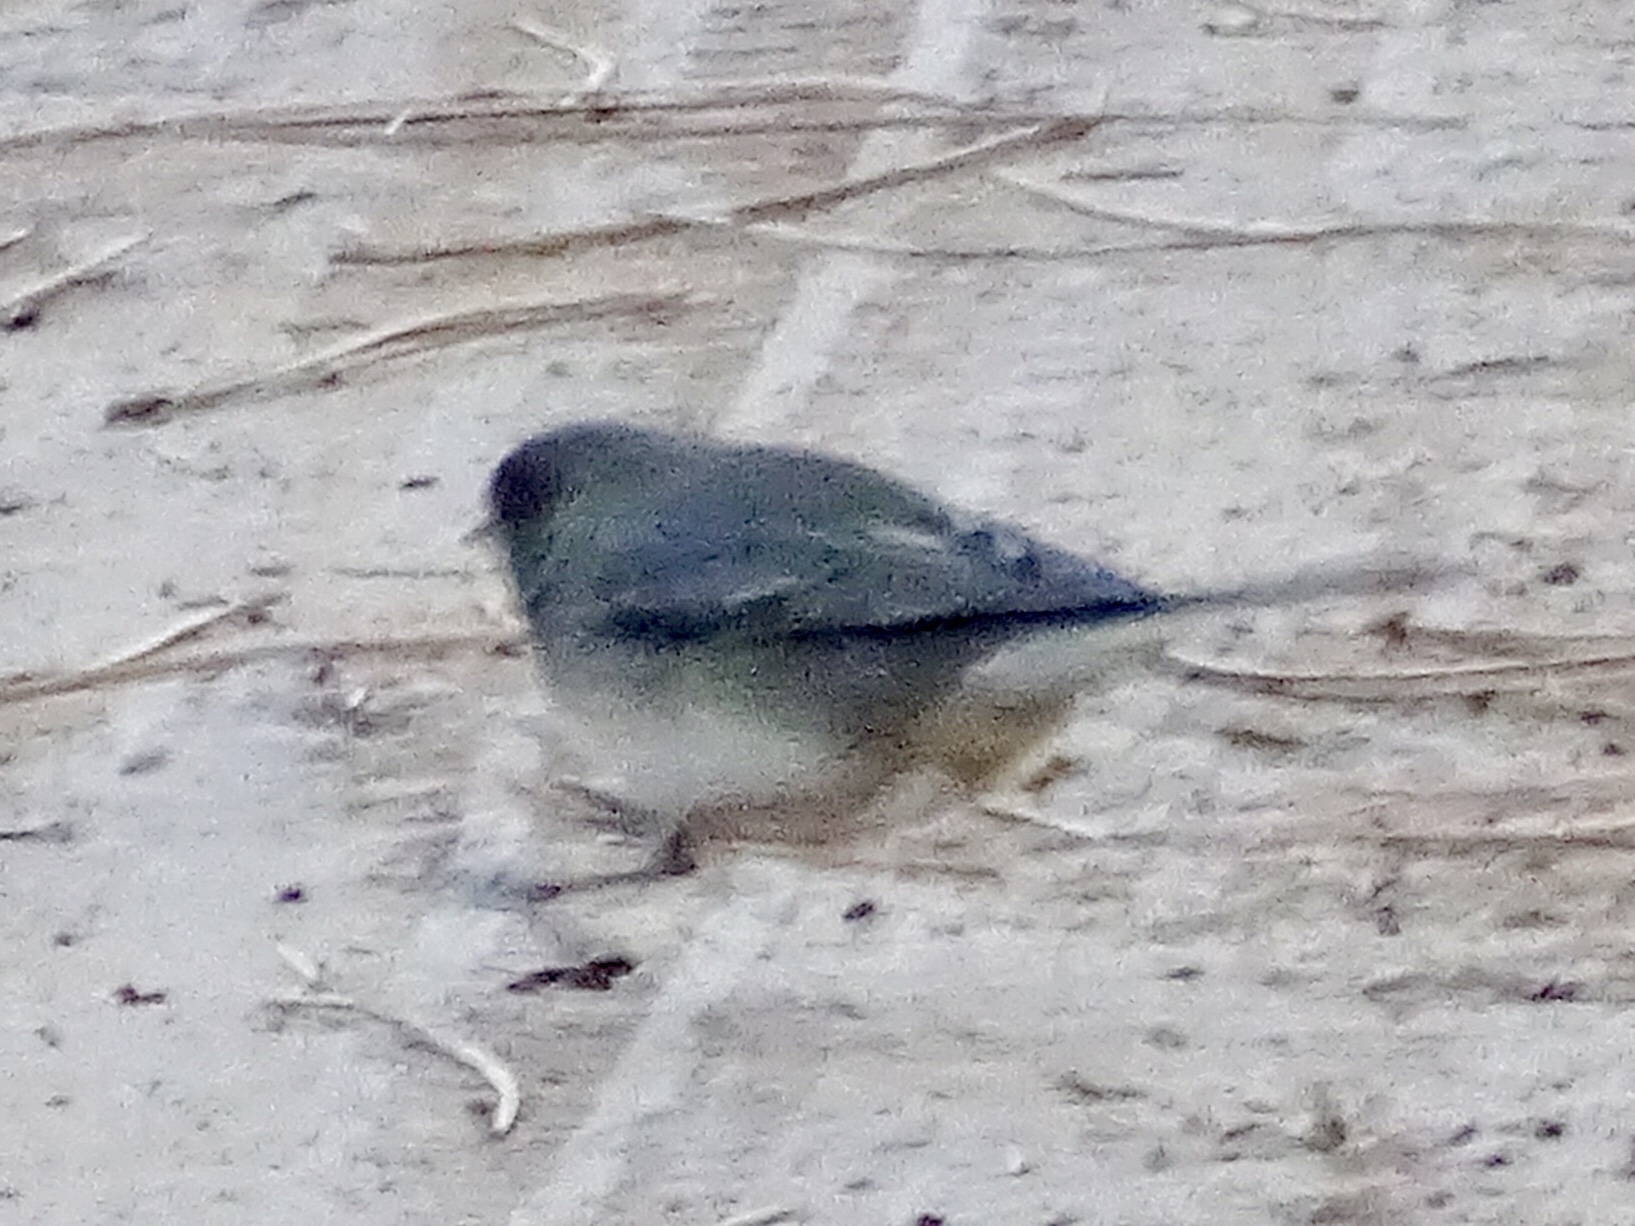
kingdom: Animalia
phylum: Chordata
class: Aves
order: Passeriformes
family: Passerellidae
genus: Junco
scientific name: Junco hyemalis
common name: Dark-eyed junco
